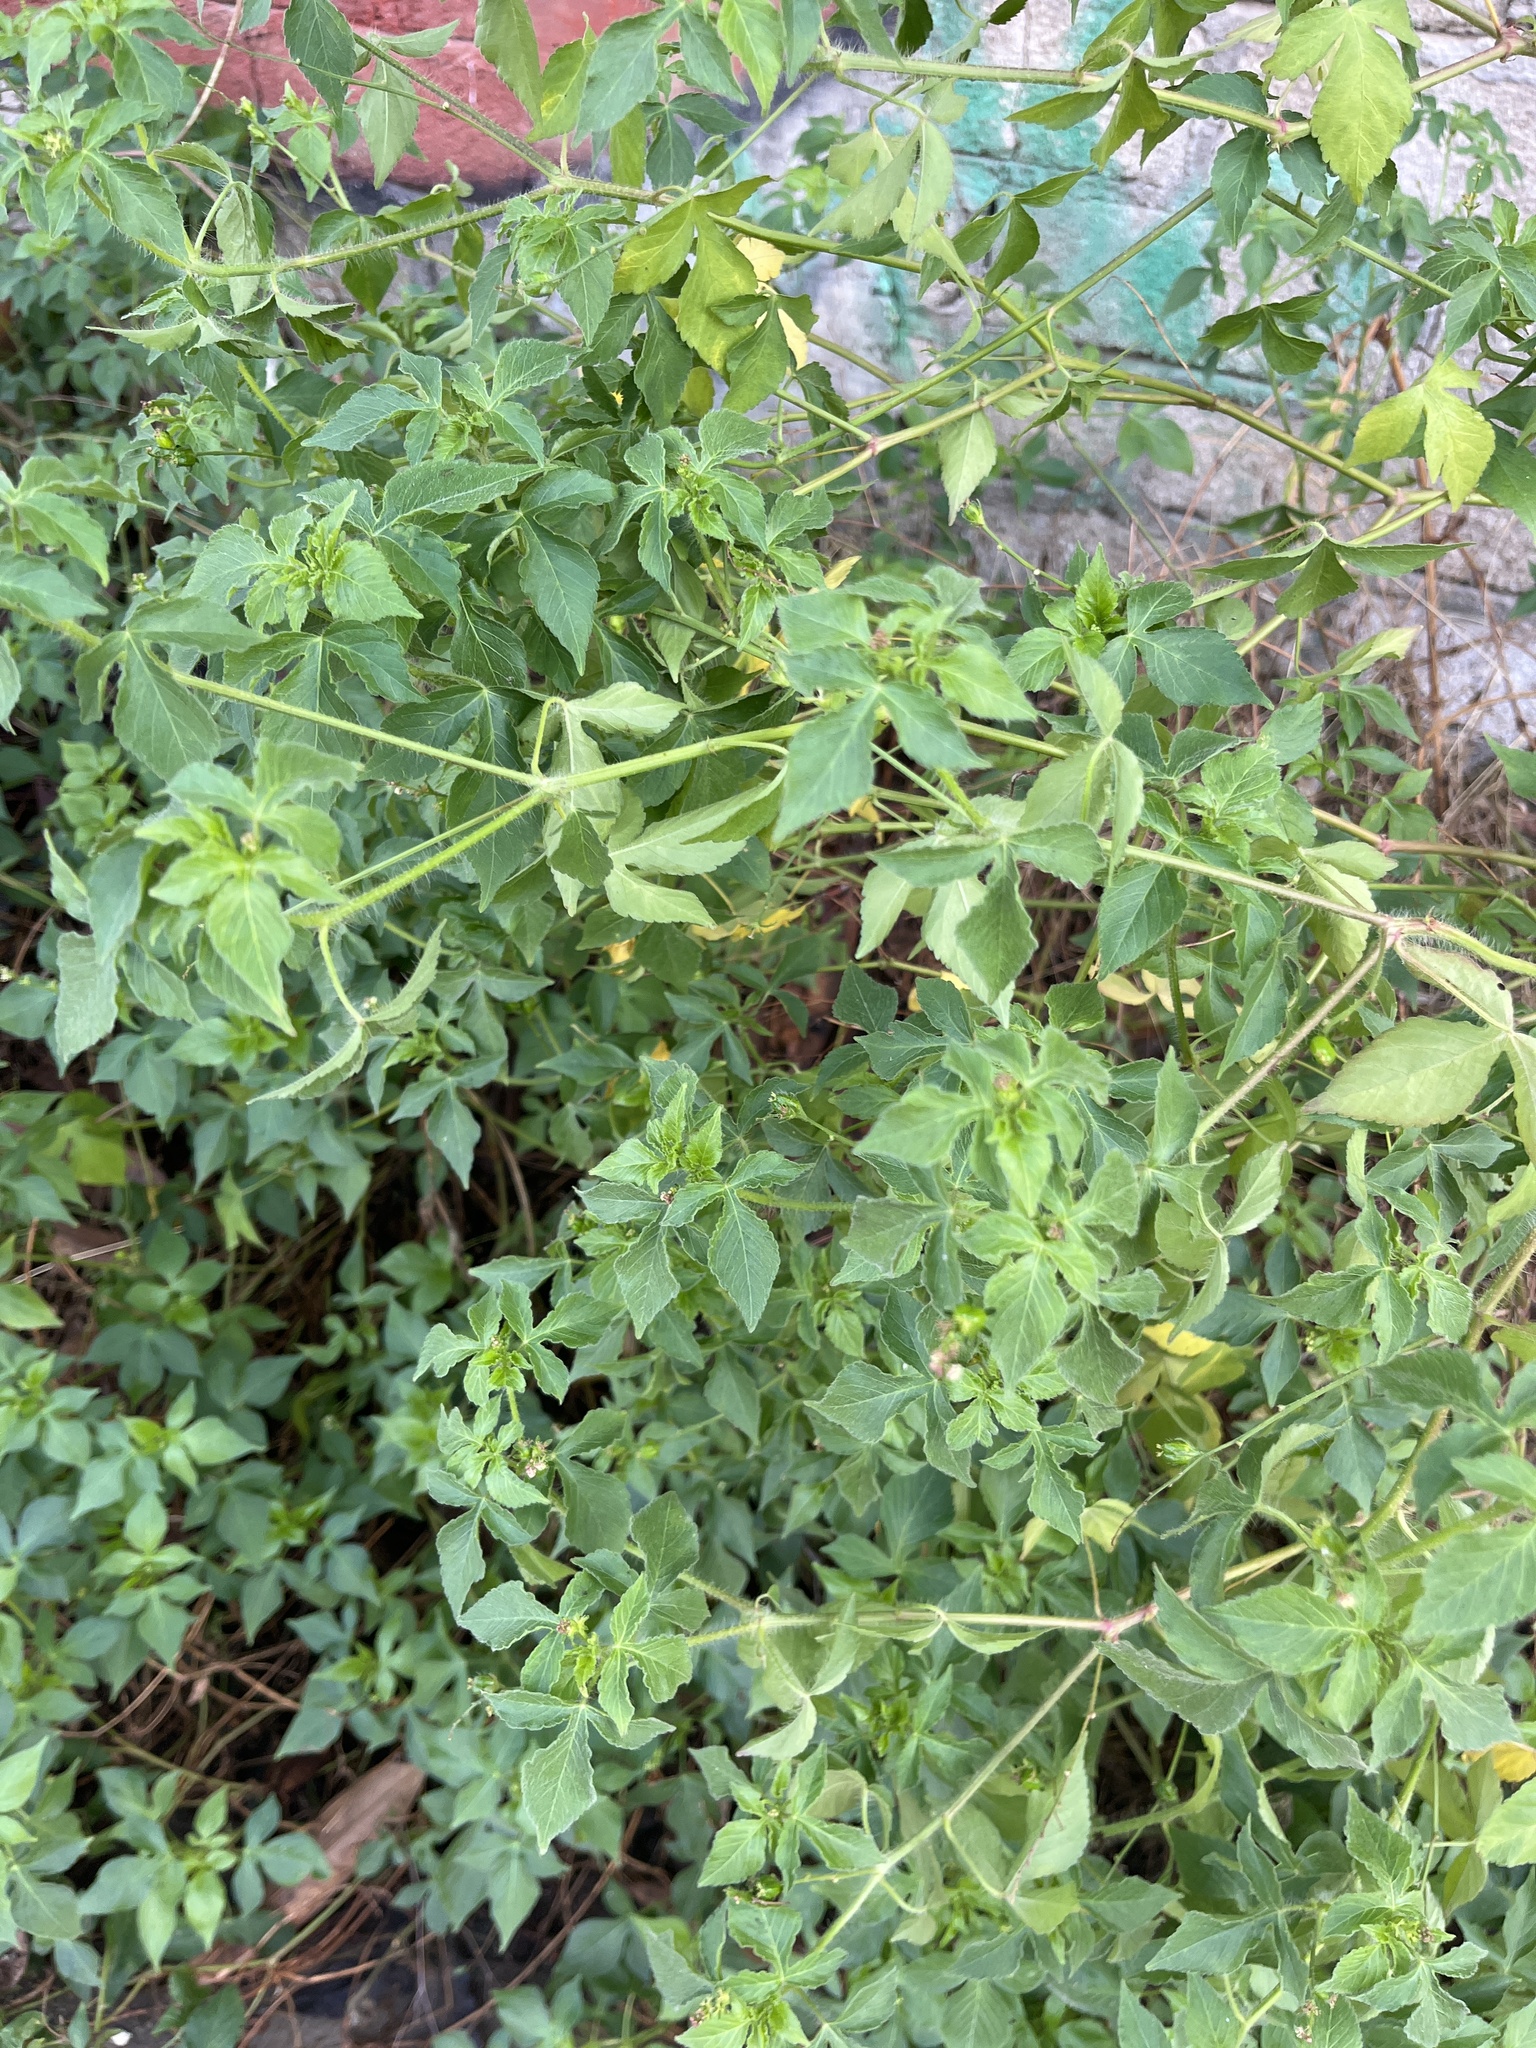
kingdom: Plantae
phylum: Tracheophyta
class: Magnoliopsida
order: Malpighiales
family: Euphorbiaceae
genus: Astraea
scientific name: Astraea lobata
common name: Lobed croton
